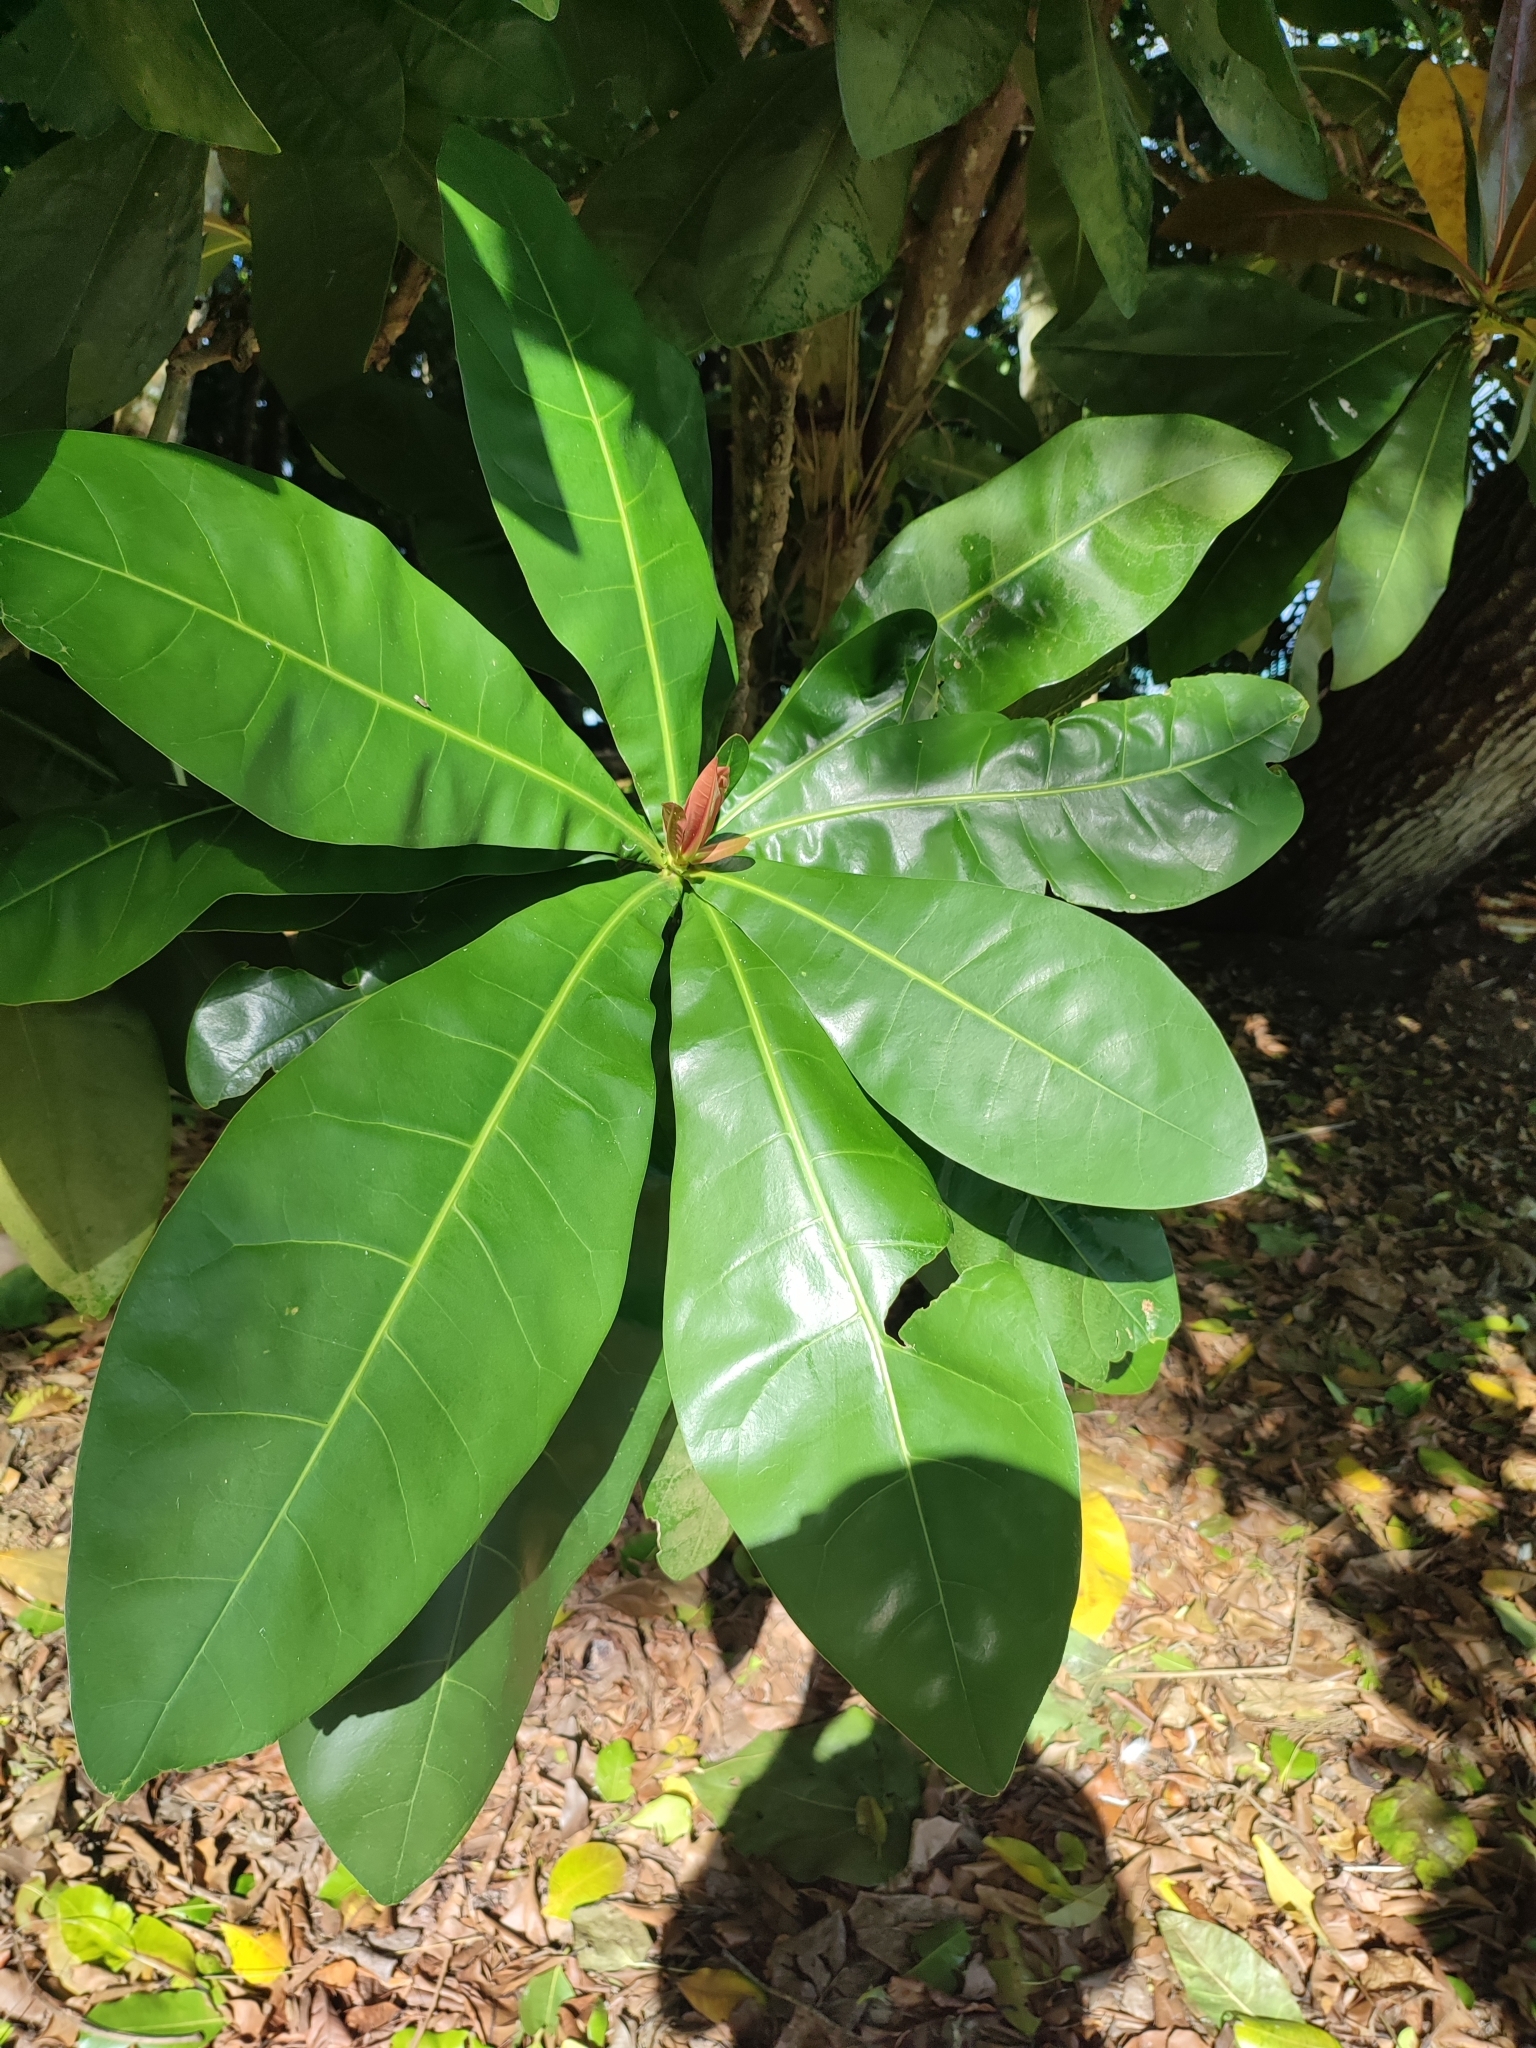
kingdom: Plantae
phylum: Tracheophyta
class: Magnoliopsida
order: Ericales
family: Lecythidaceae
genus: Barringtonia
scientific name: Barringtonia asiatica
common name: Mango-pine
